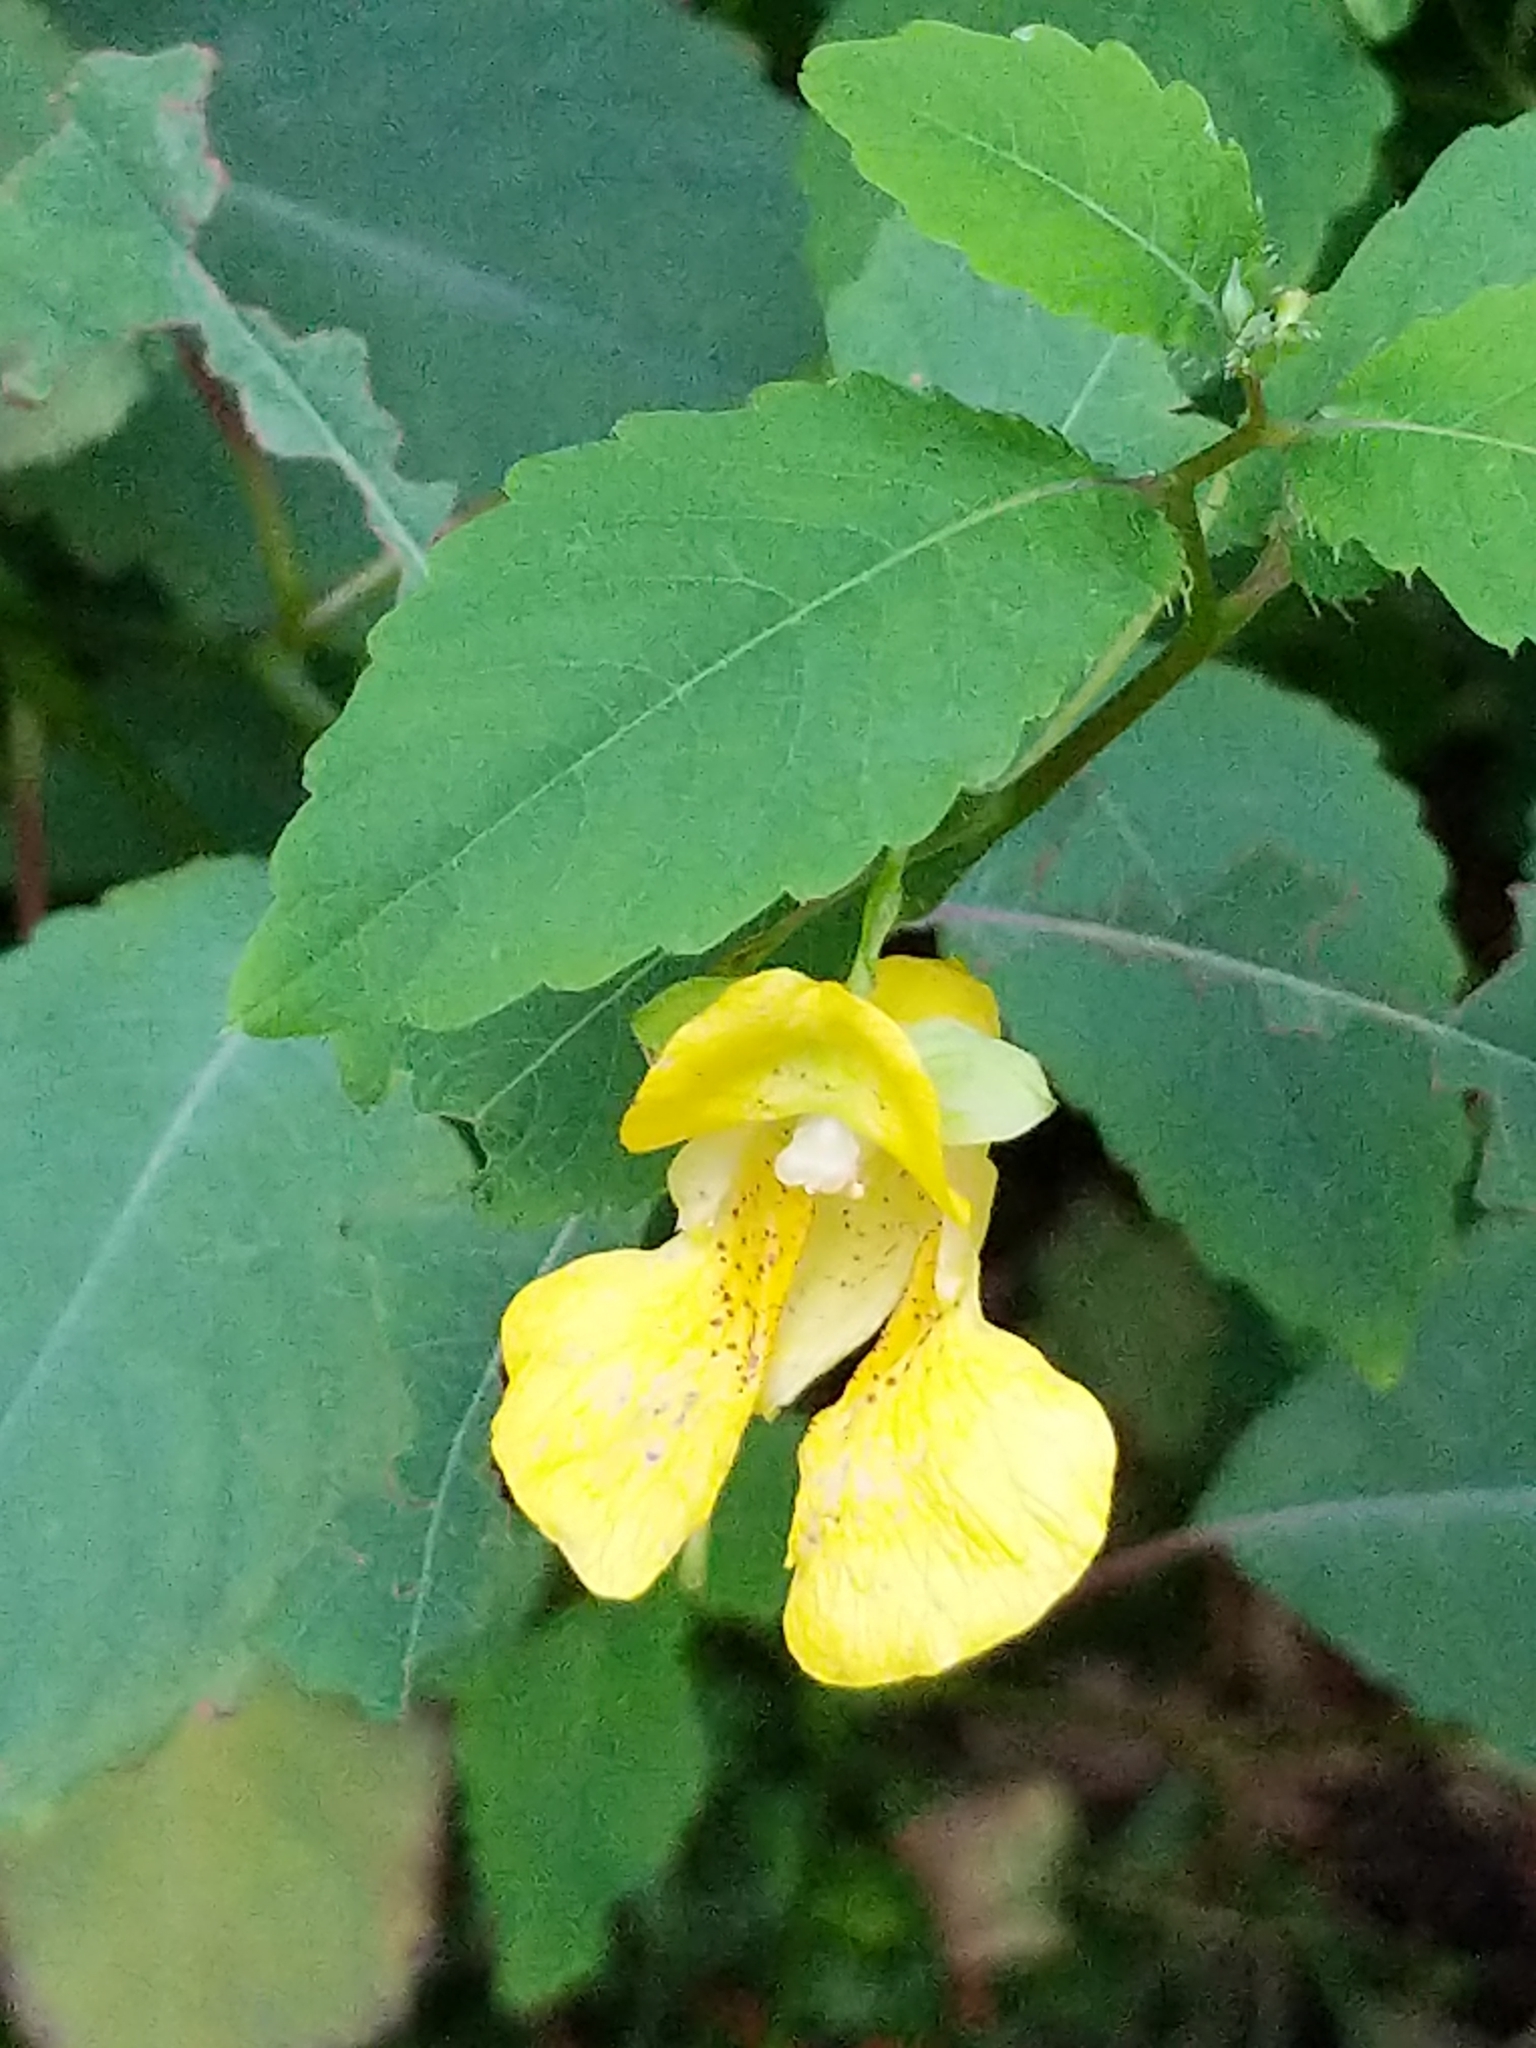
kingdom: Plantae
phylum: Tracheophyta
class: Magnoliopsida
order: Ericales
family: Balsaminaceae
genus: Impatiens
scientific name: Impatiens pallida
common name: Pale snapweed
